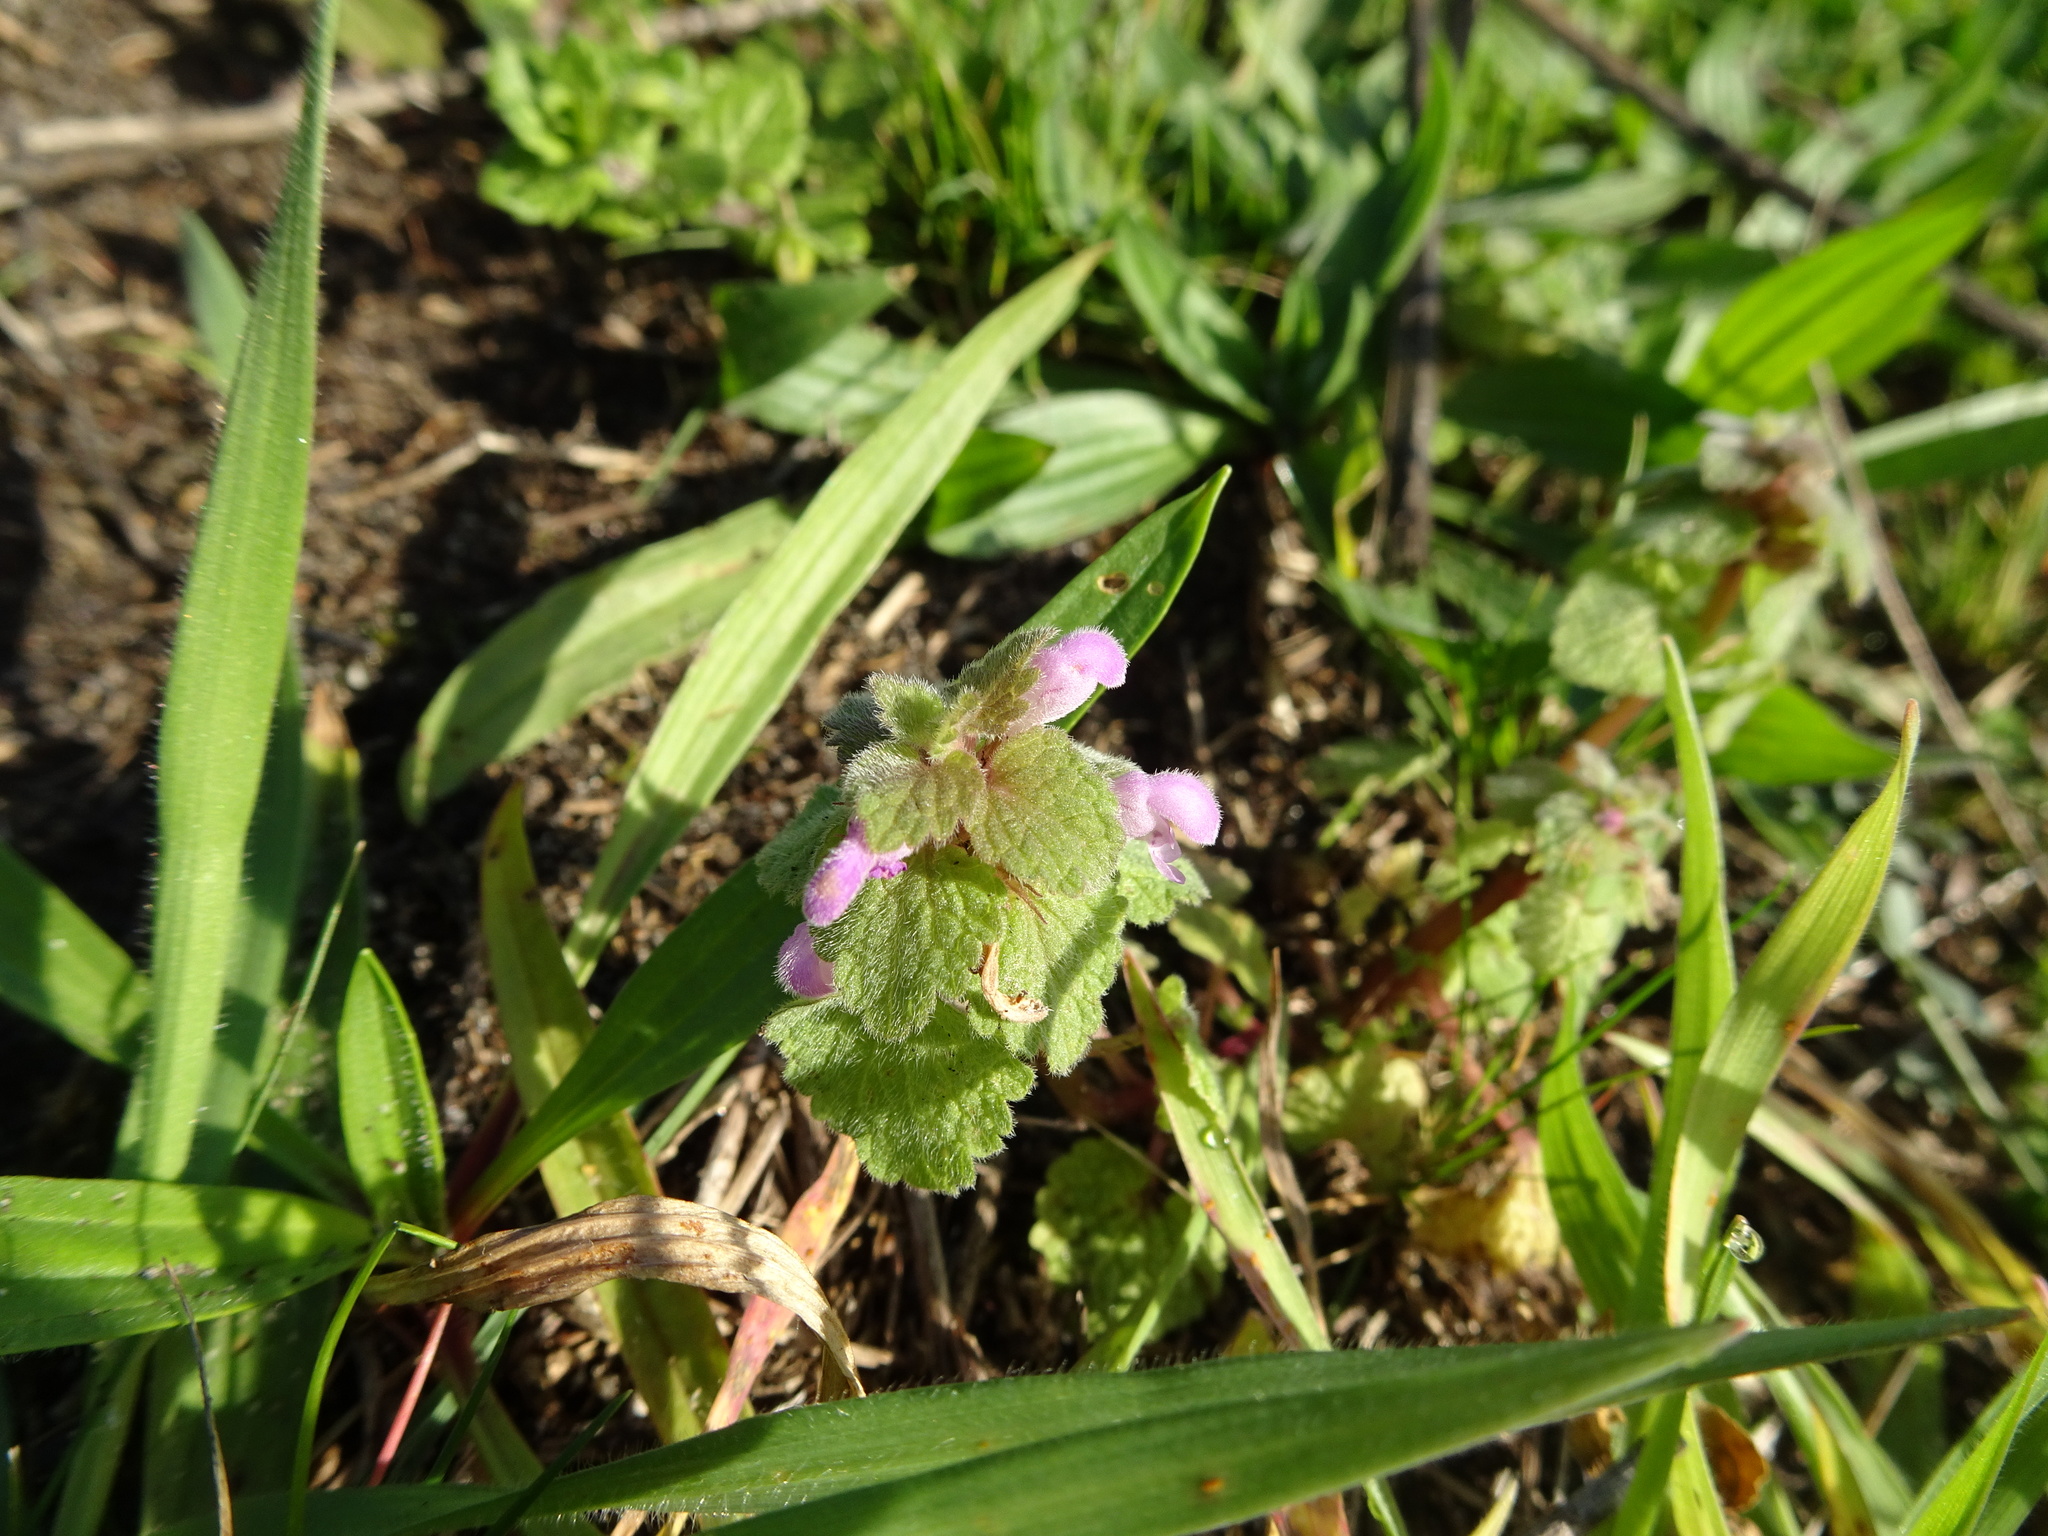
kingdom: Plantae
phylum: Tracheophyta
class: Magnoliopsida
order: Lamiales
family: Lamiaceae
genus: Lamium
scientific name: Lamium purpureum
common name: Red dead-nettle
